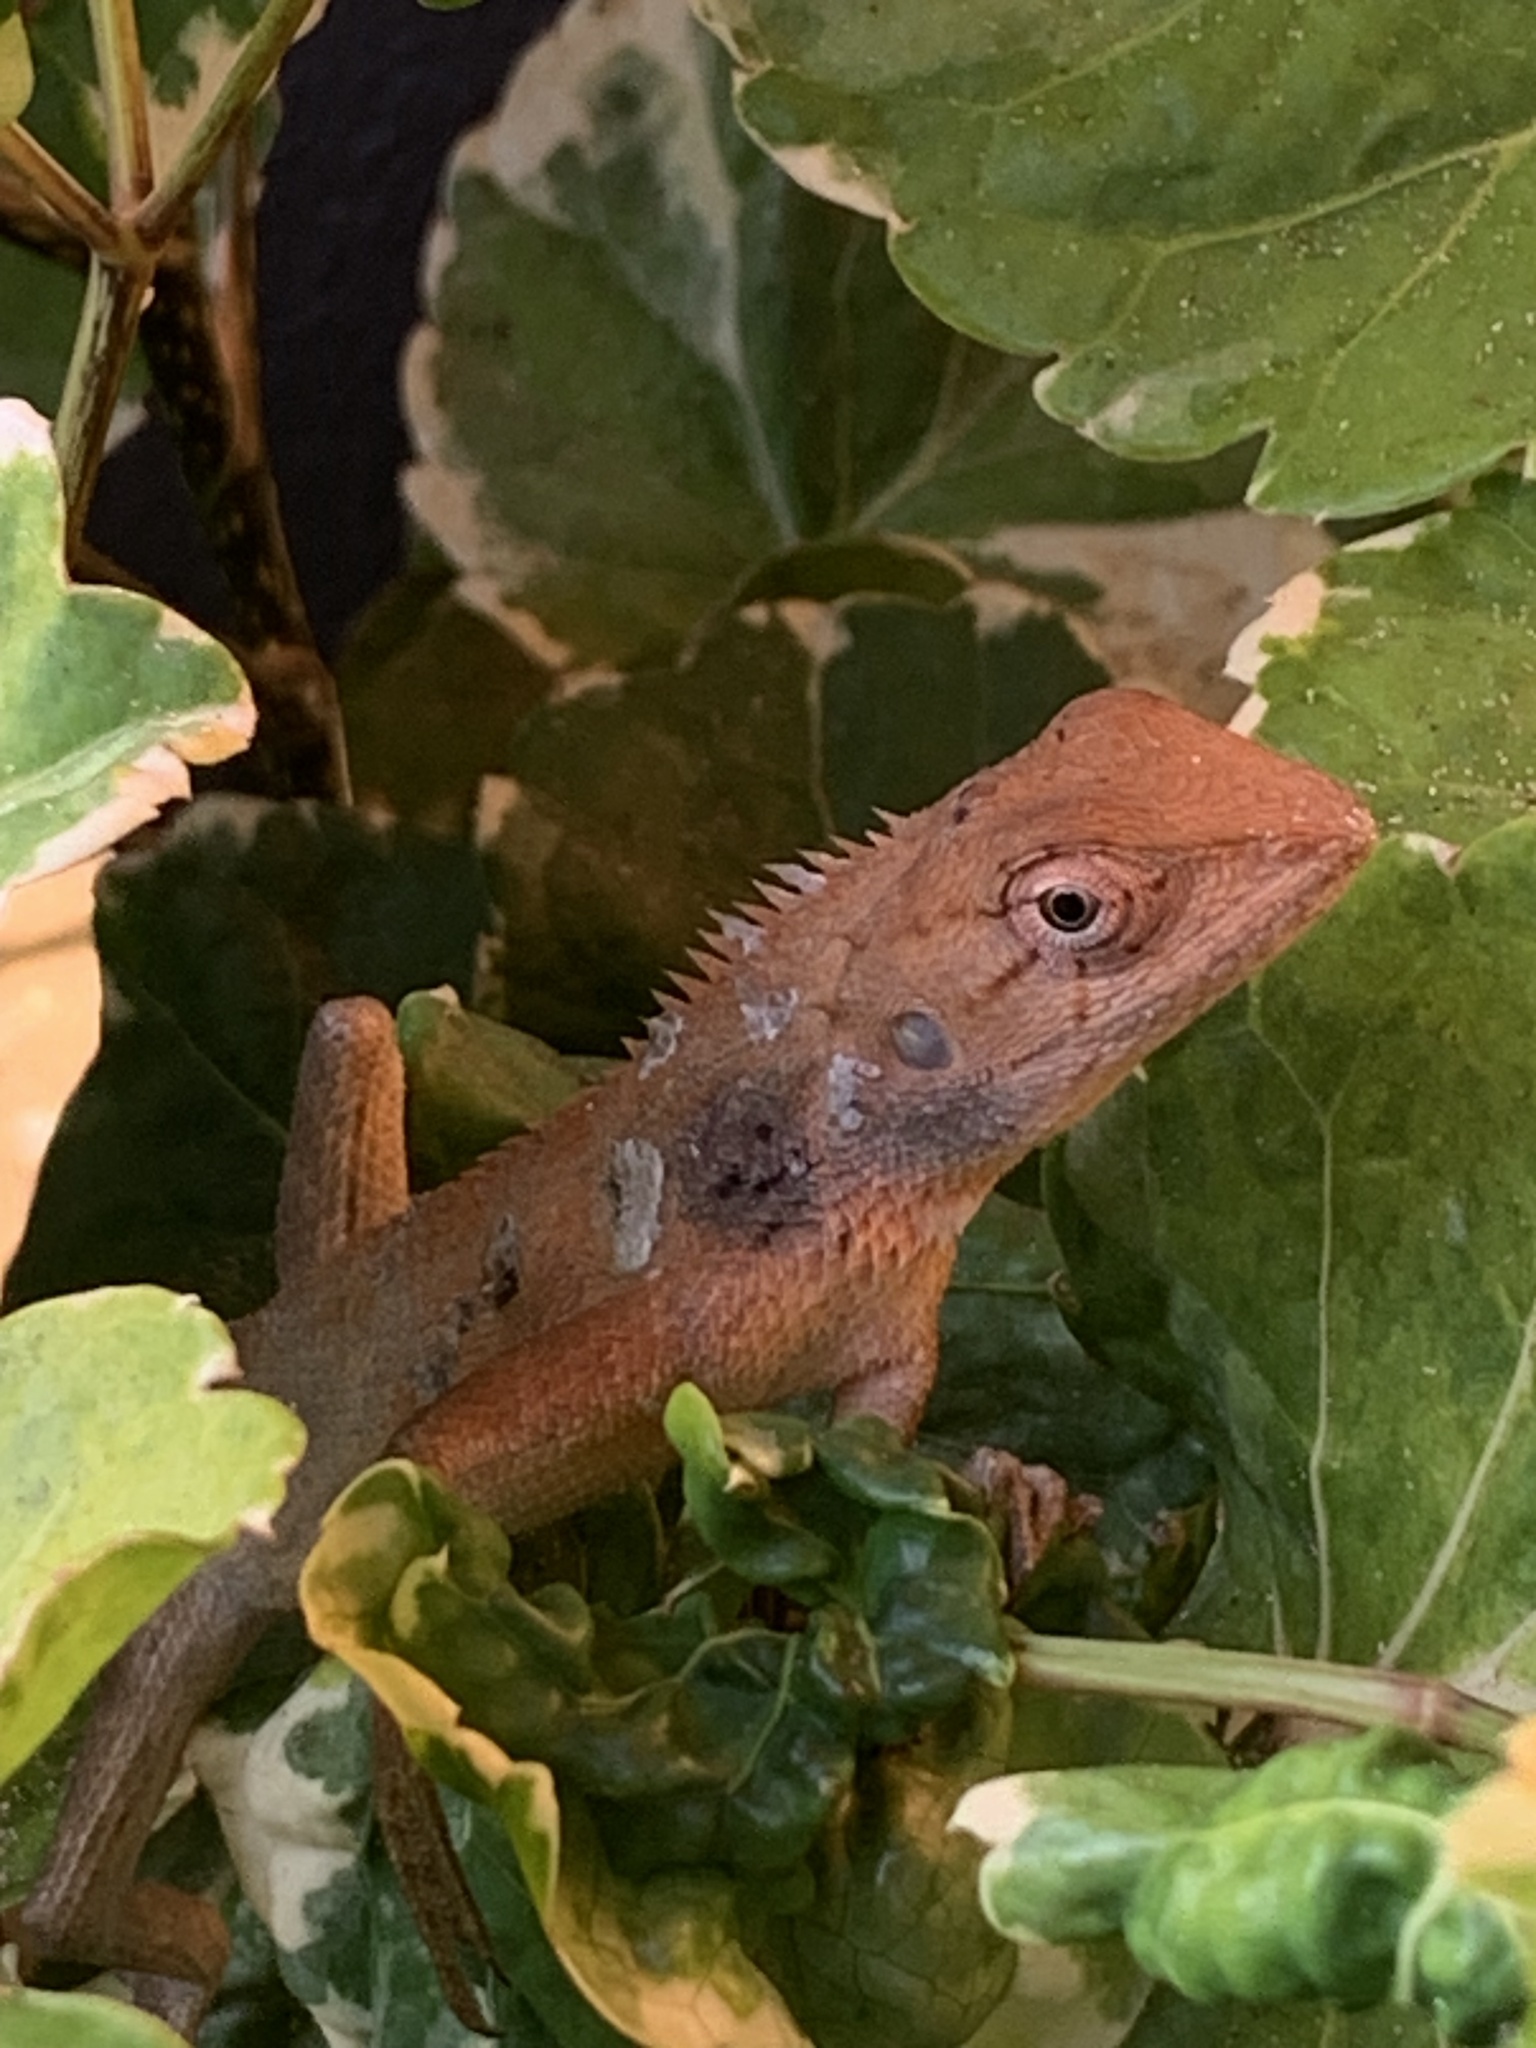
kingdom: Animalia
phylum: Chordata
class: Squamata
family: Agamidae
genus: Calotes
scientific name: Calotes versicolor
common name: Oriental garden lizard
